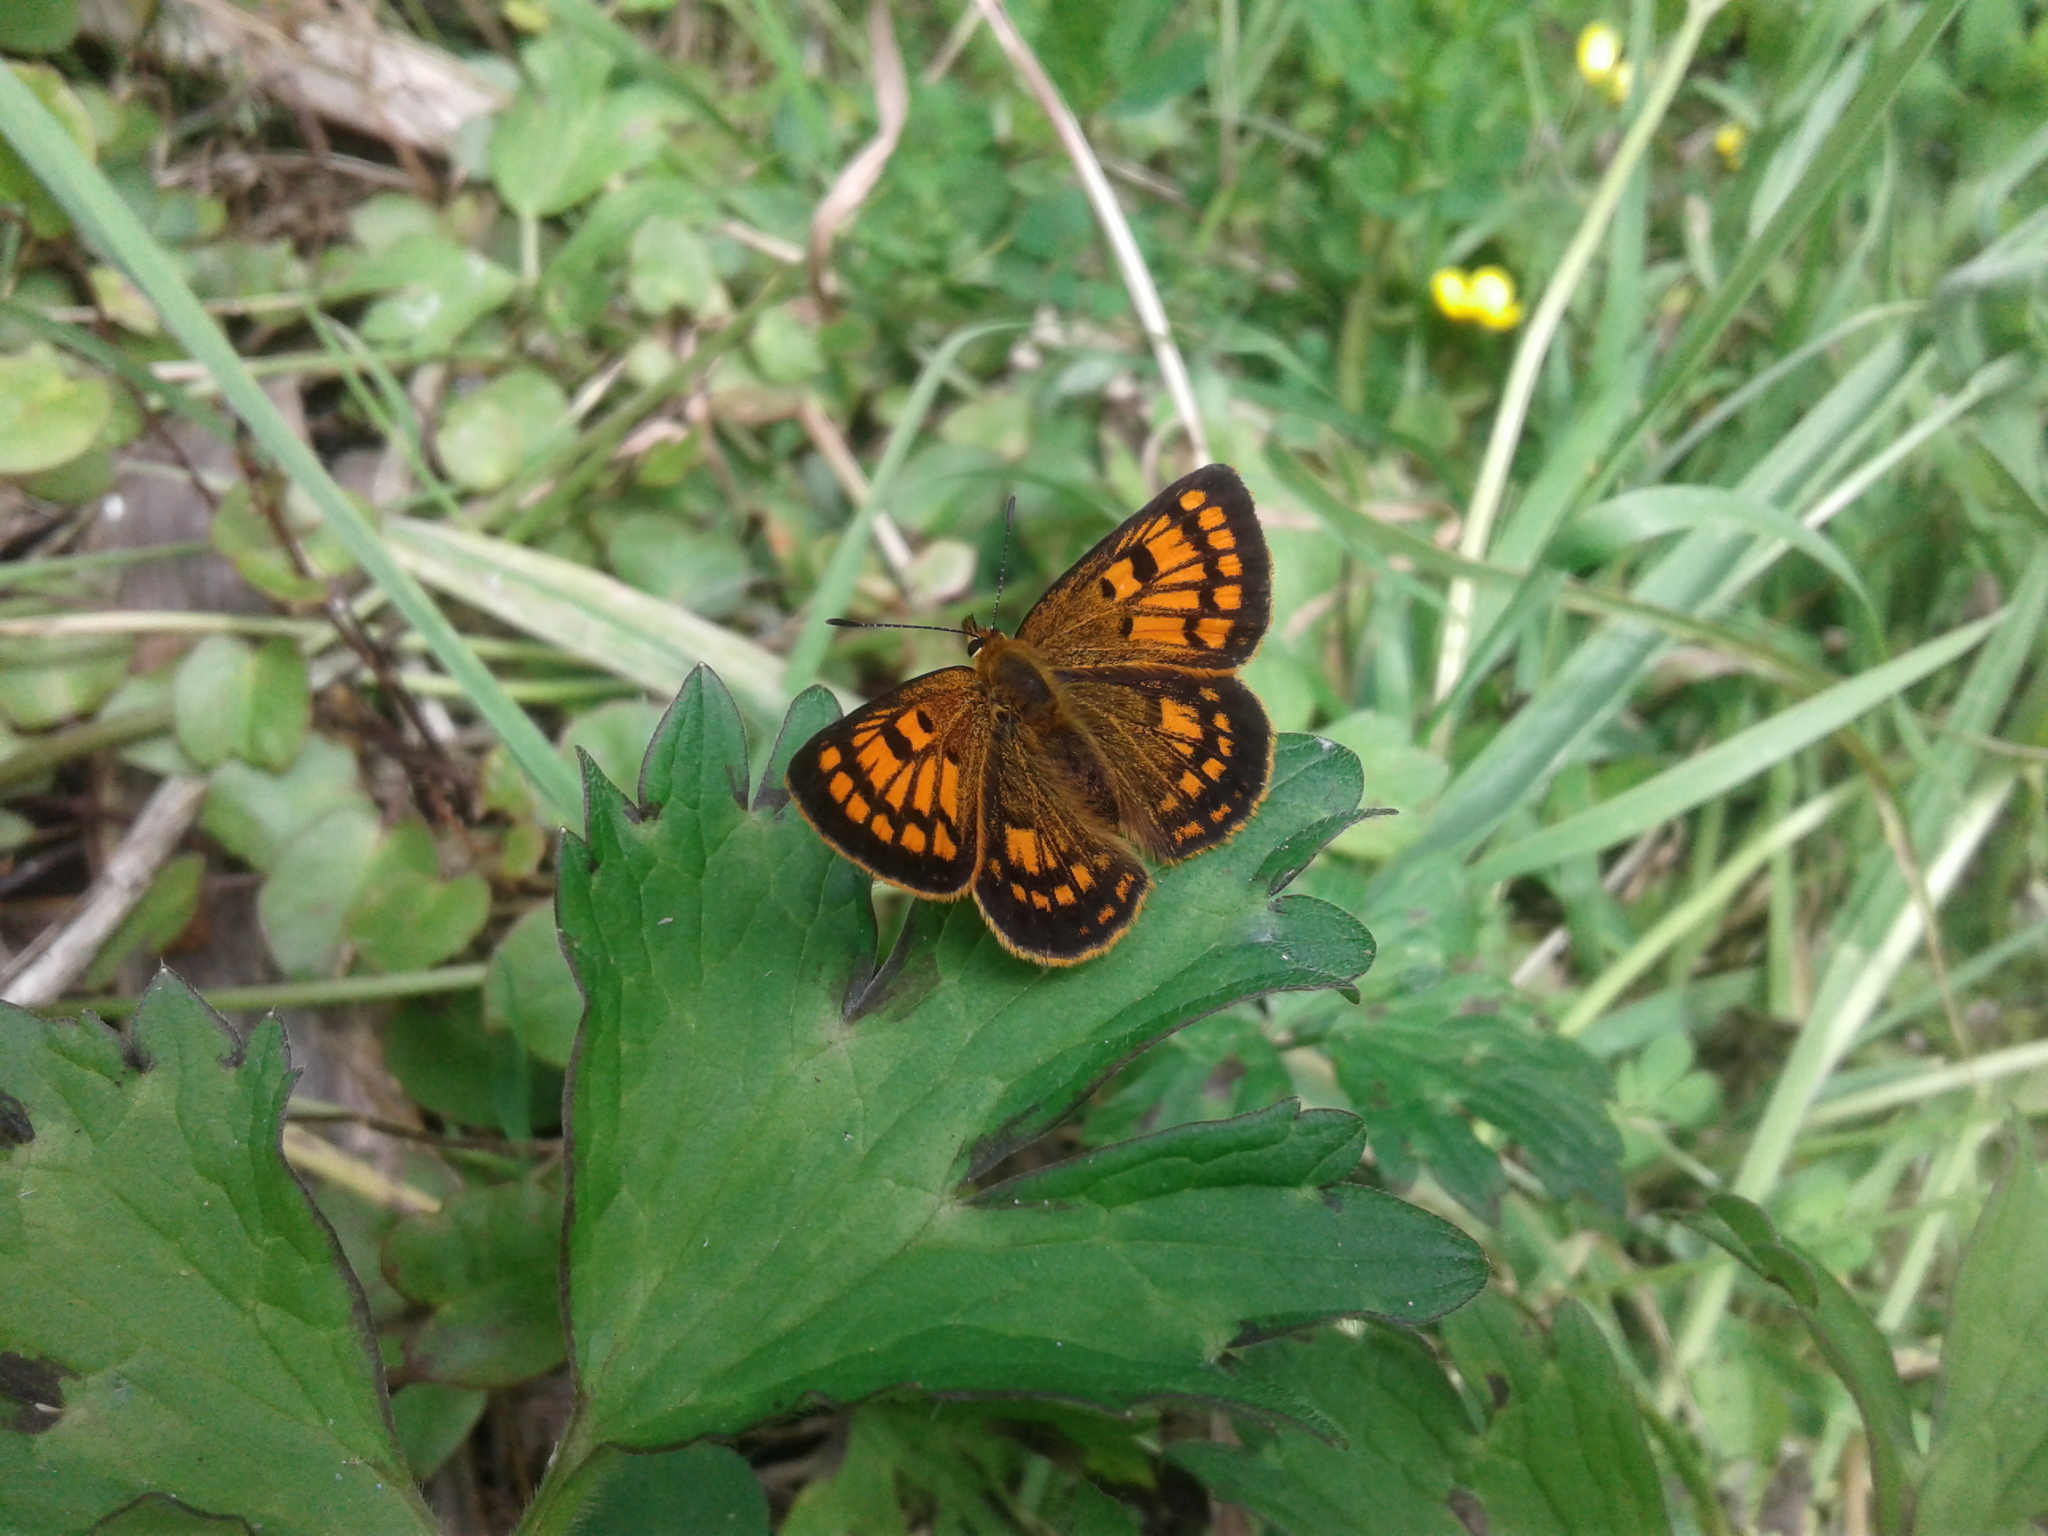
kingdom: Animalia
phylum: Arthropoda
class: Insecta
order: Lepidoptera
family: Lycaenidae
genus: Lycaena
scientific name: Lycaena
